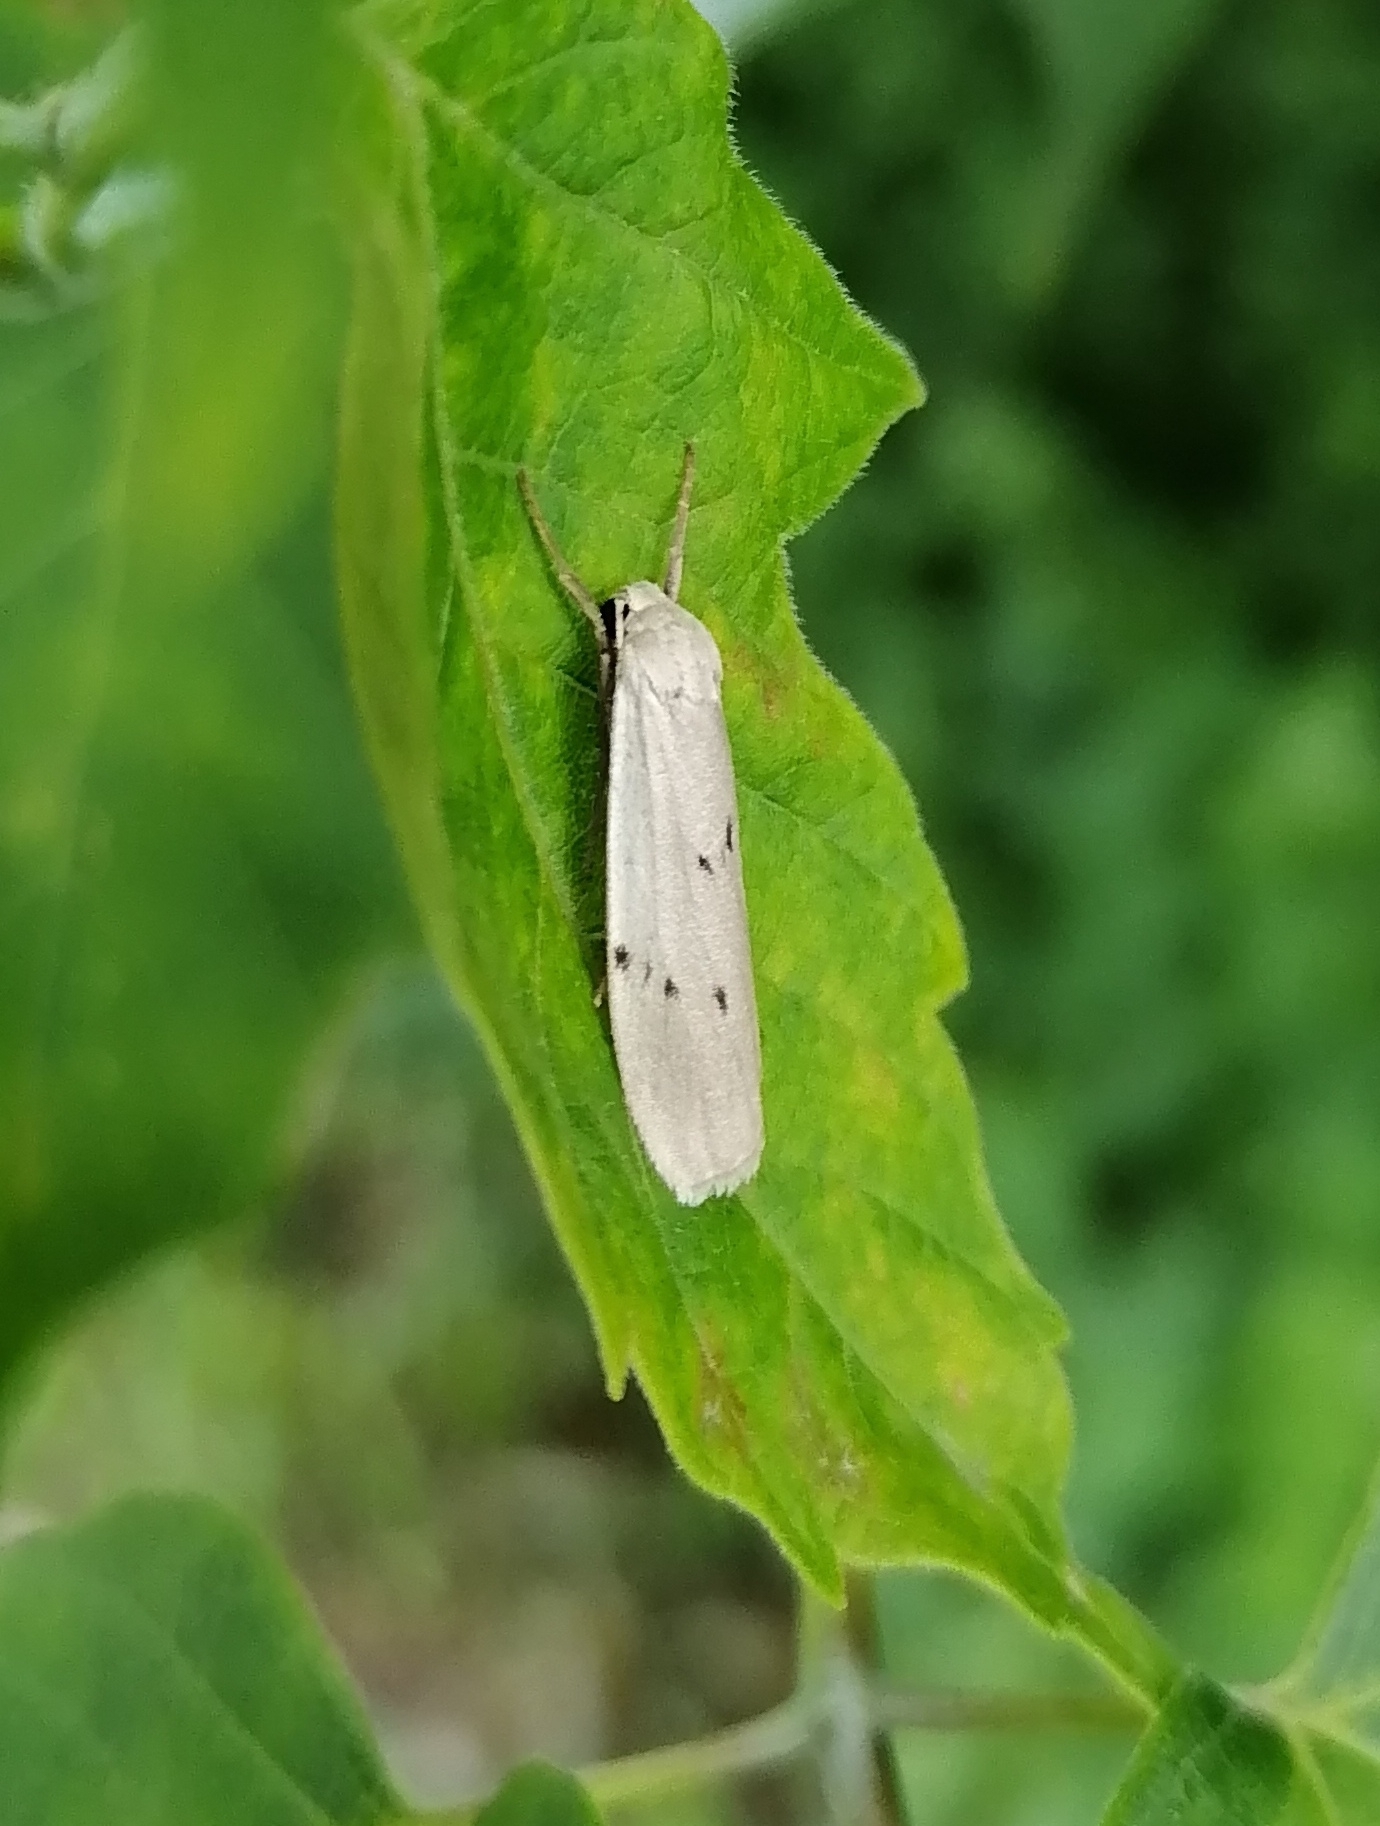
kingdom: Animalia
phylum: Arthropoda
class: Insecta
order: Lepidoptera
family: Erebidae
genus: Pelosia
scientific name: Pelosia muscerda
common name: Dotted footman
